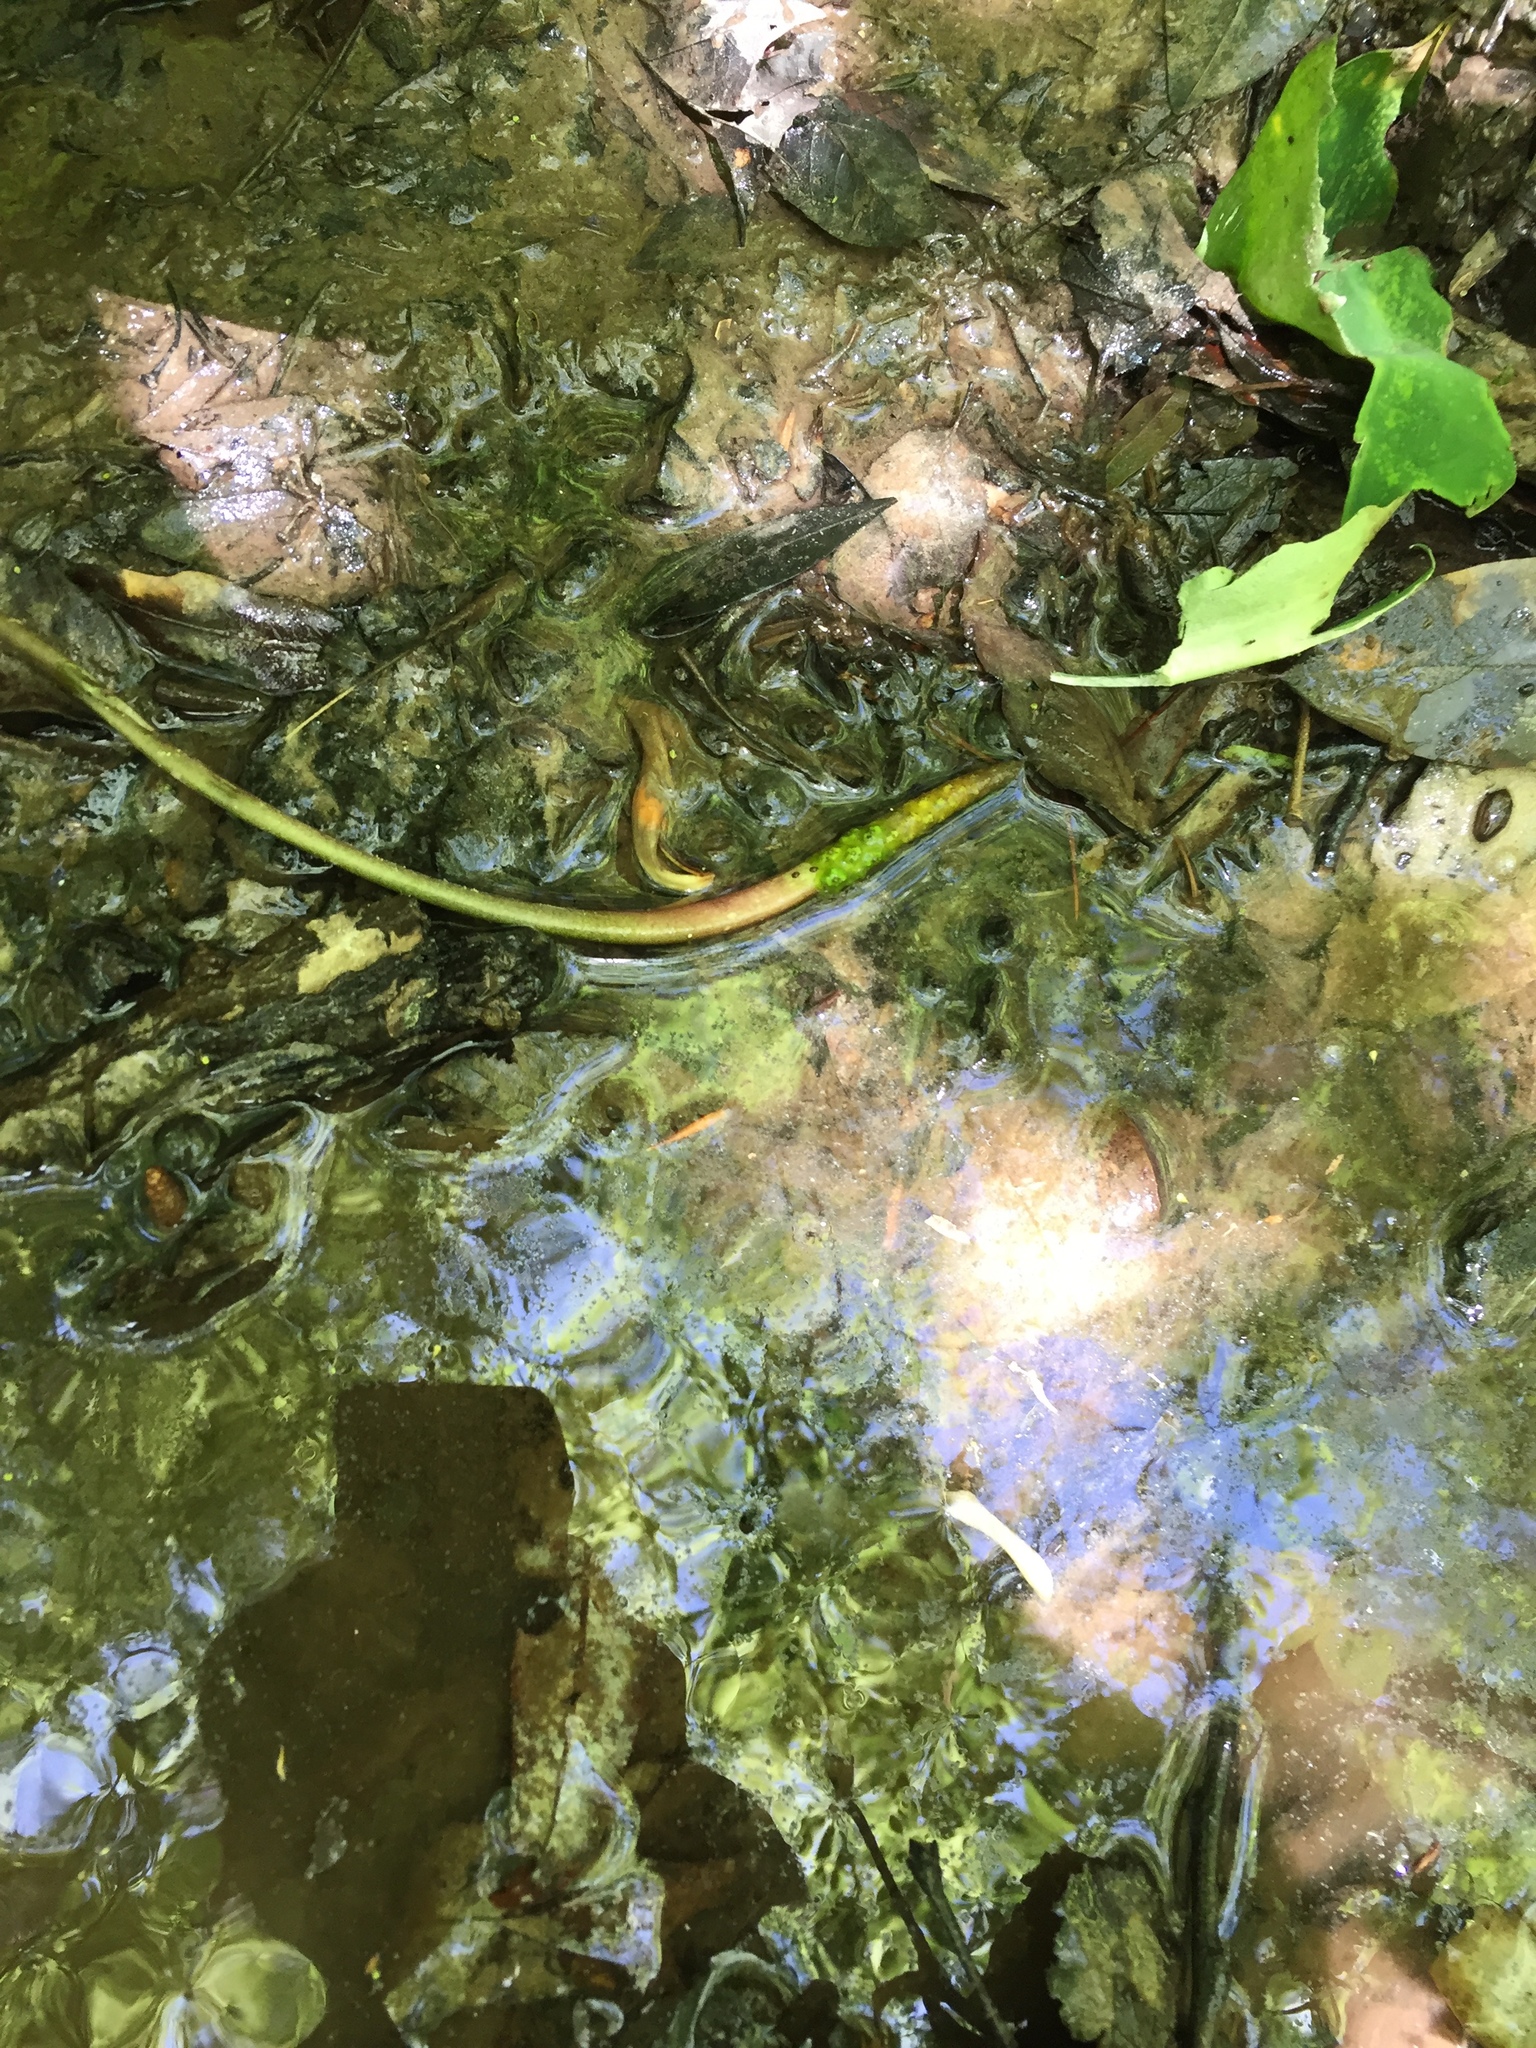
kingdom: Plantae
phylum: Tracheophyta
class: Liliopsida
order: Alismatales
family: Araceae
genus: Orontium
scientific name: Orontium aquaticum
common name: Golden-club
